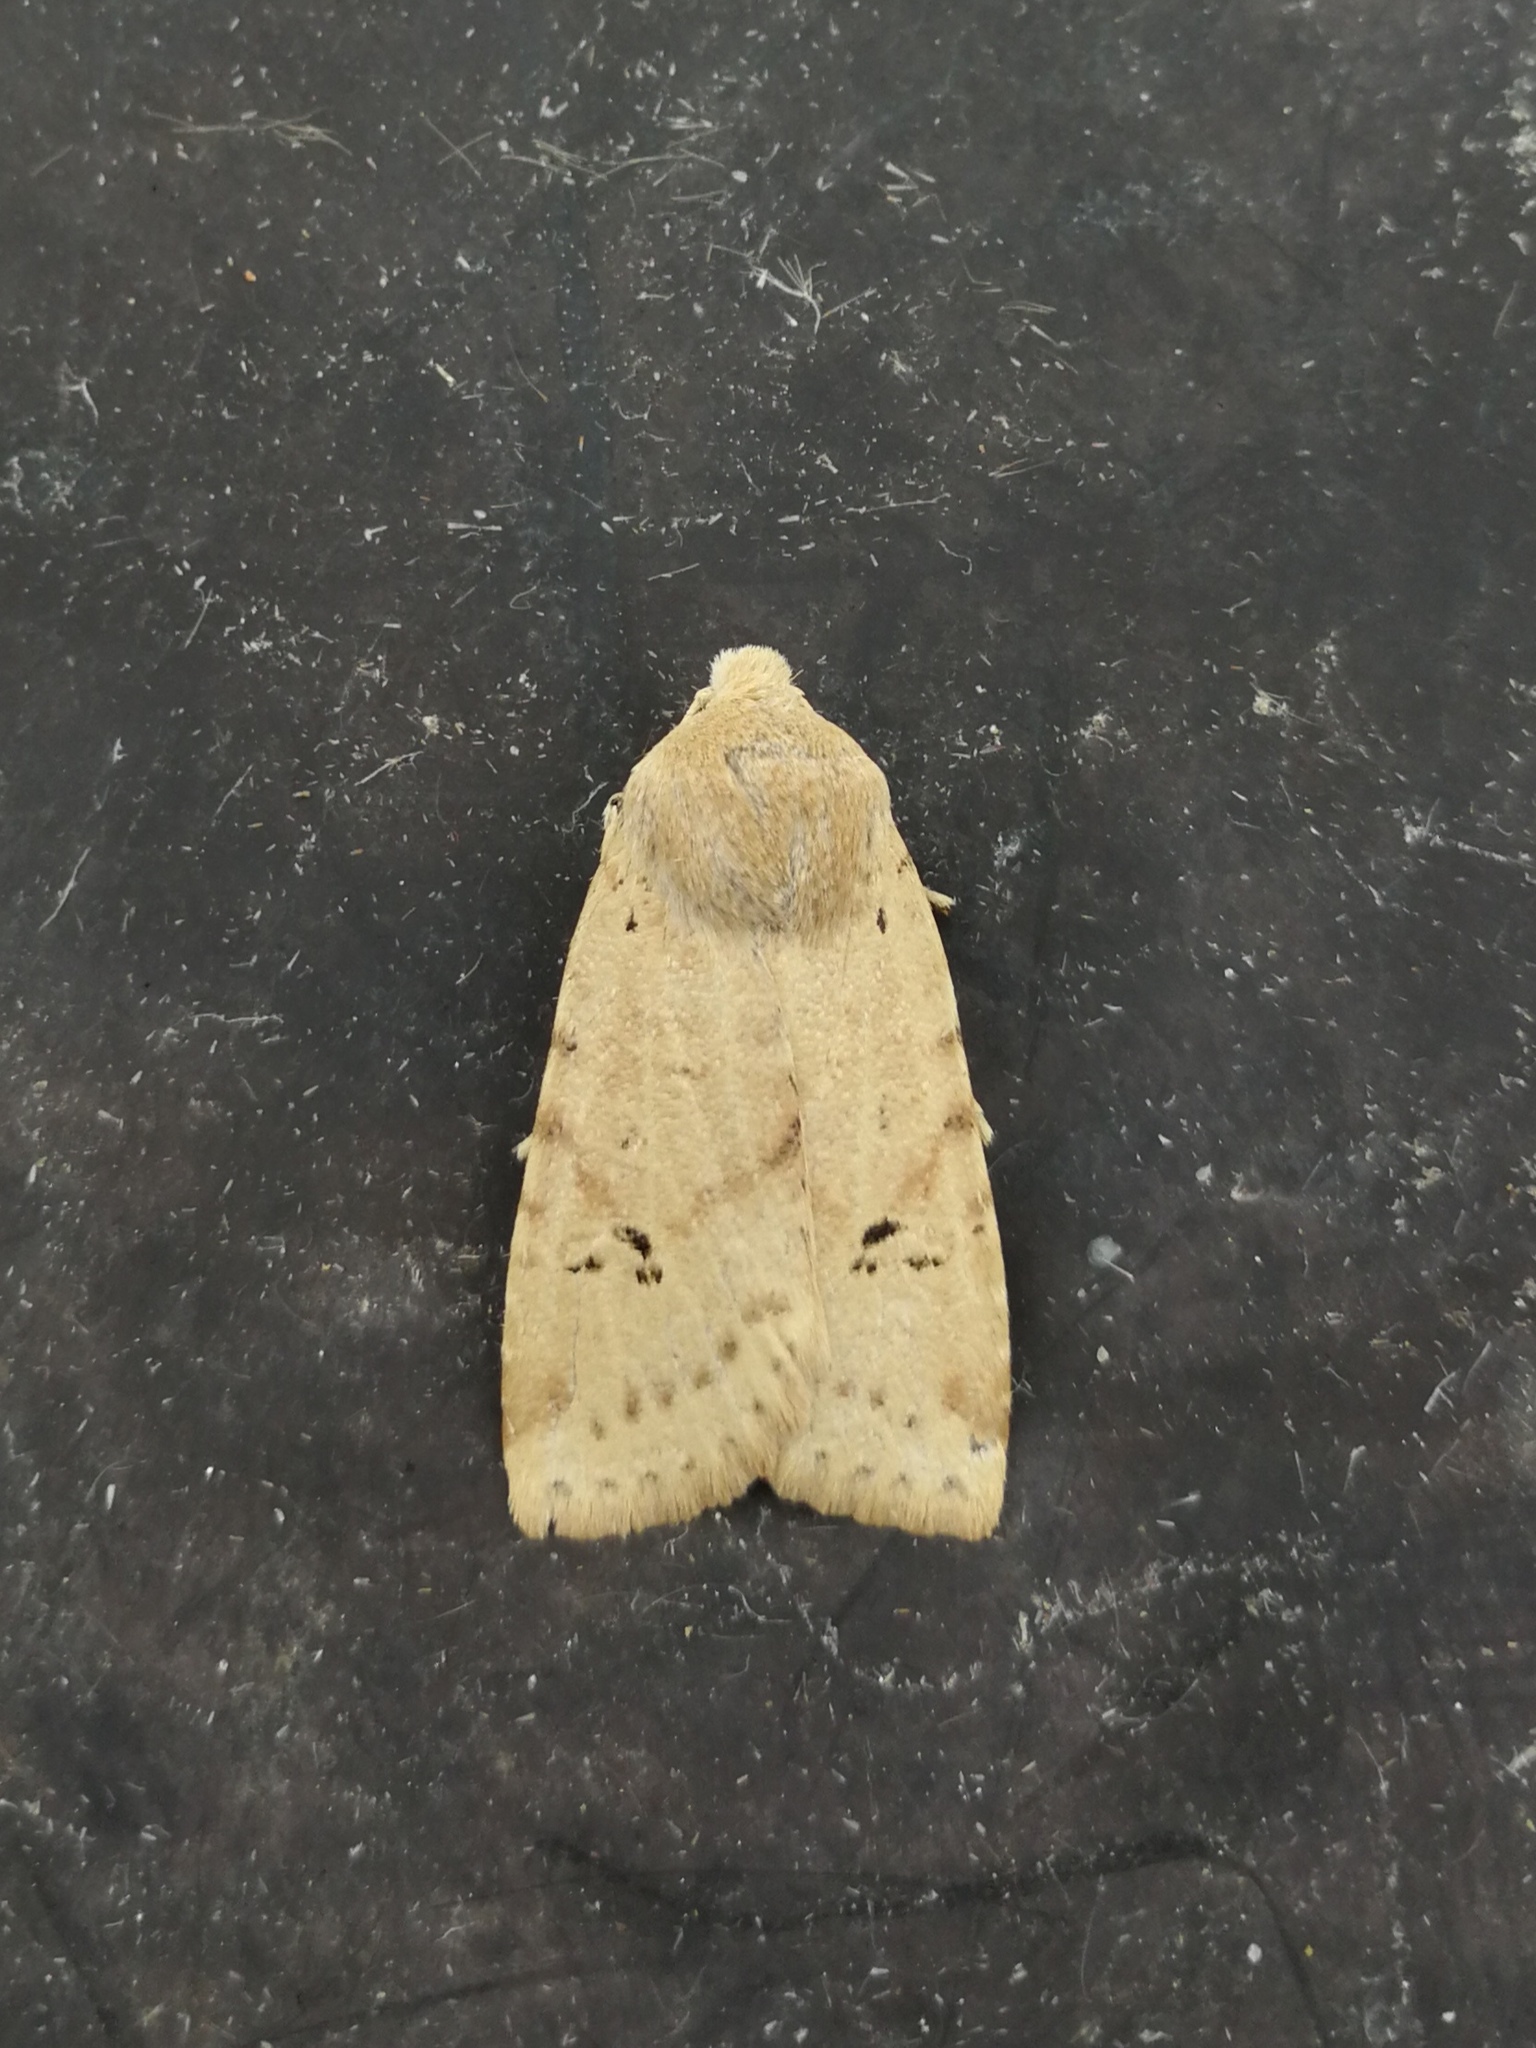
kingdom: Animalia
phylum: Arthropoda
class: Insecta
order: Lepidoptera
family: Noctuidae
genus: Conistra
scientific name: Conistra daubei
